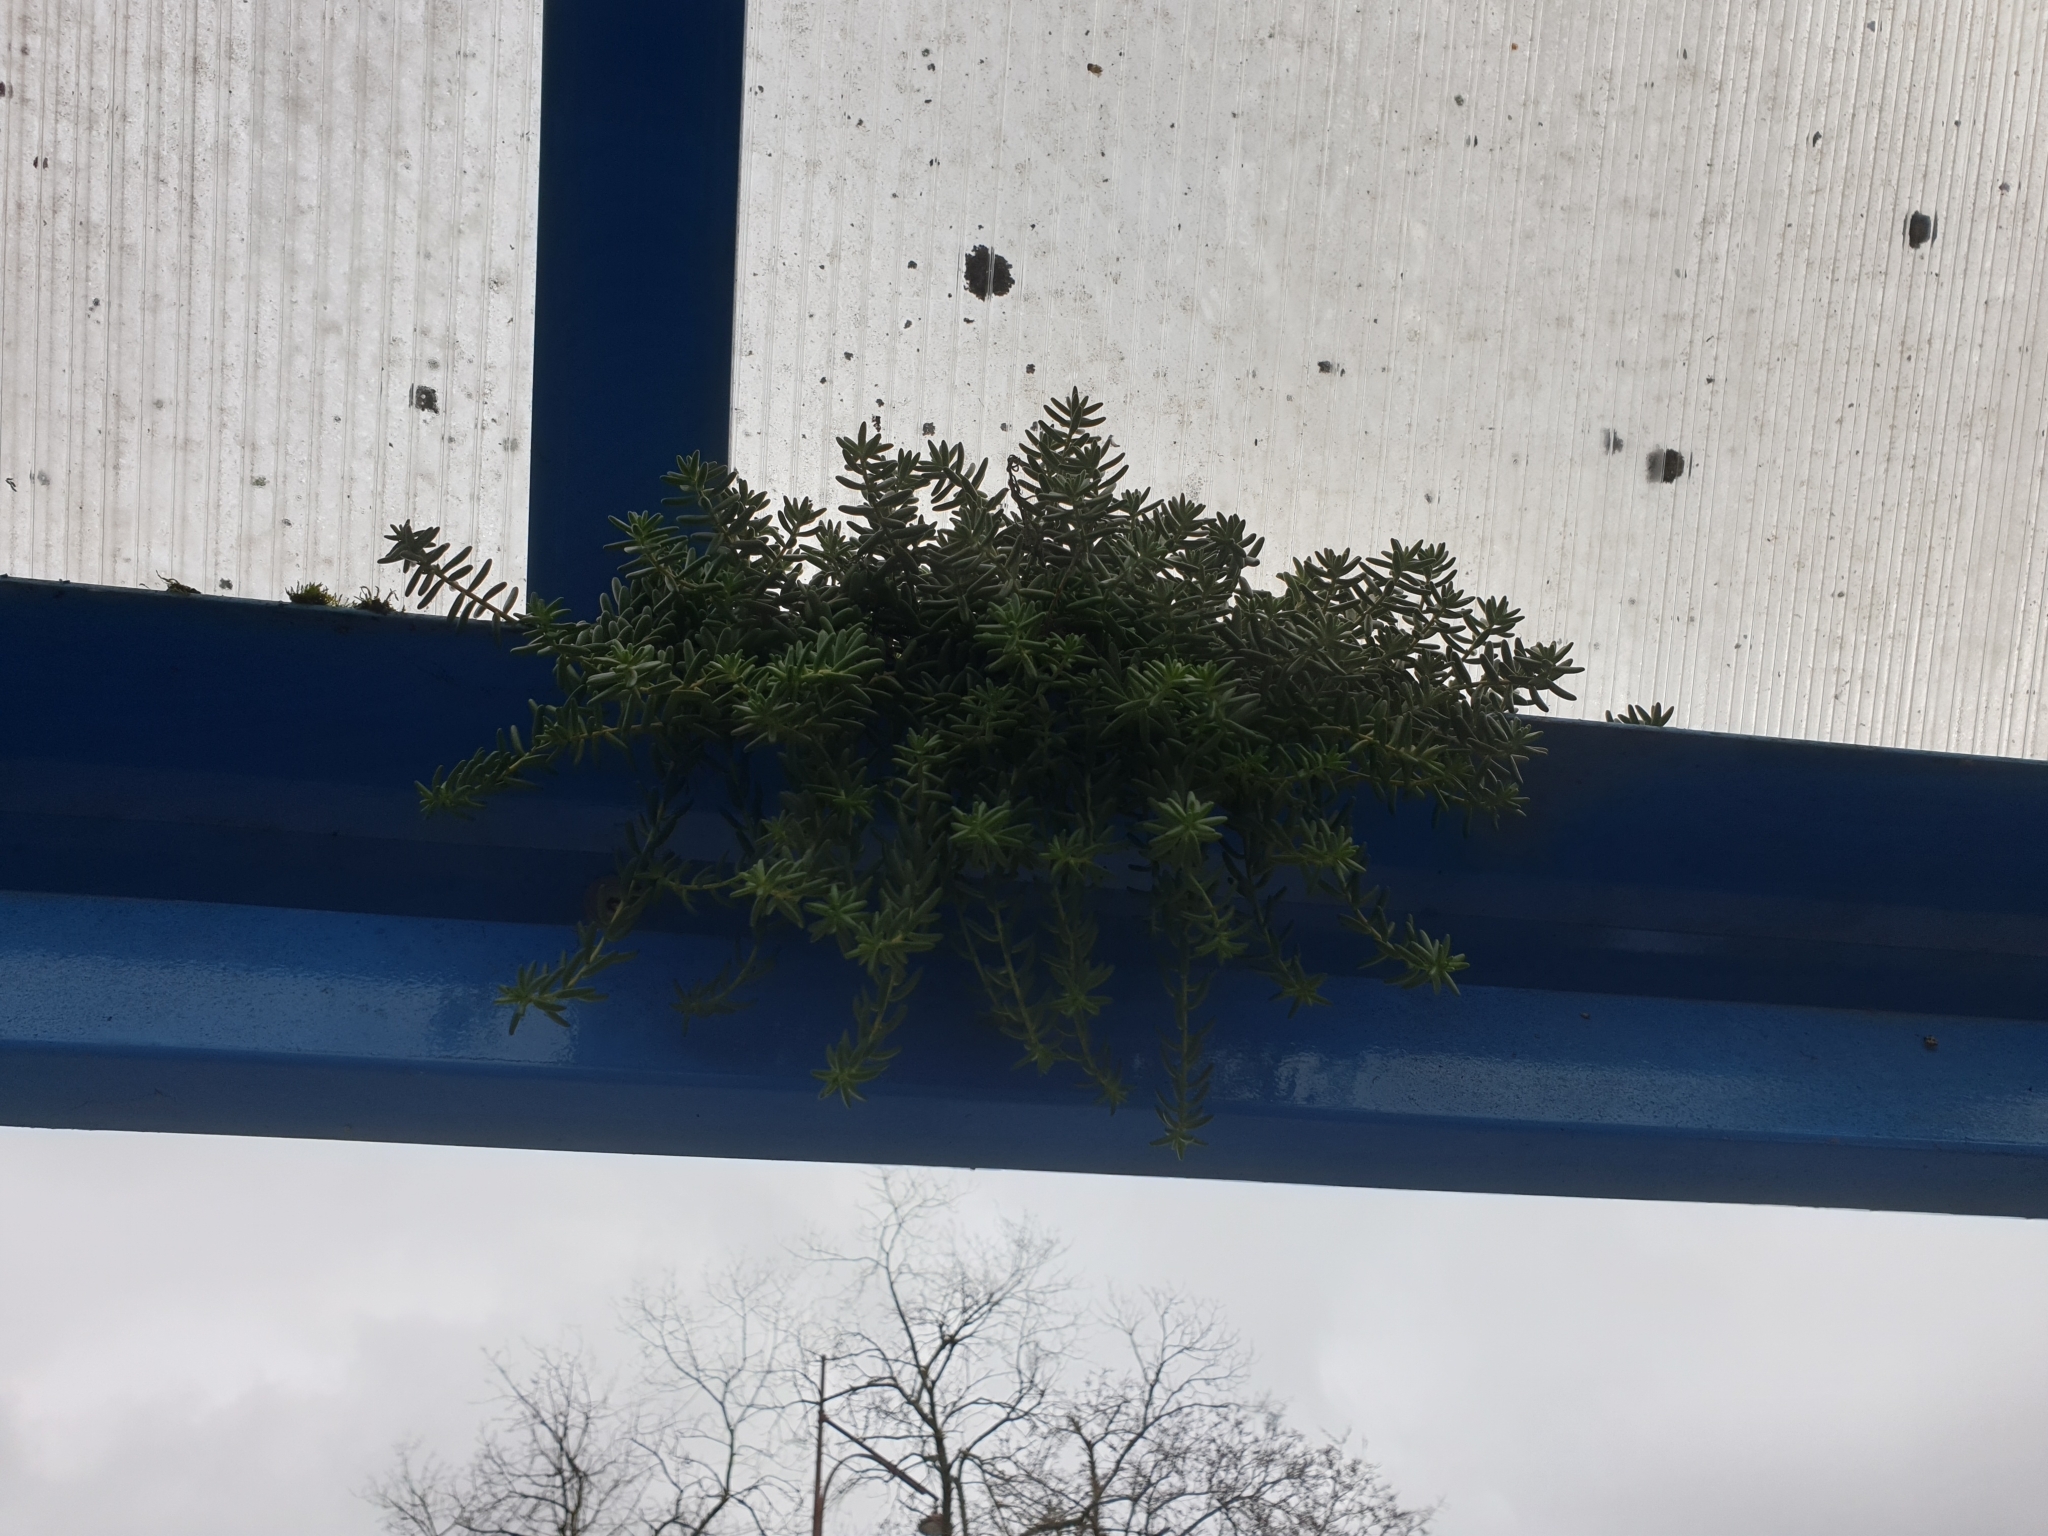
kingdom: Plantae
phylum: Tracheophyta
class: Magnoliopsida
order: Saxifragales
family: Crassulaceae
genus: Sedum
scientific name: Sedum album
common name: White stonecrop
